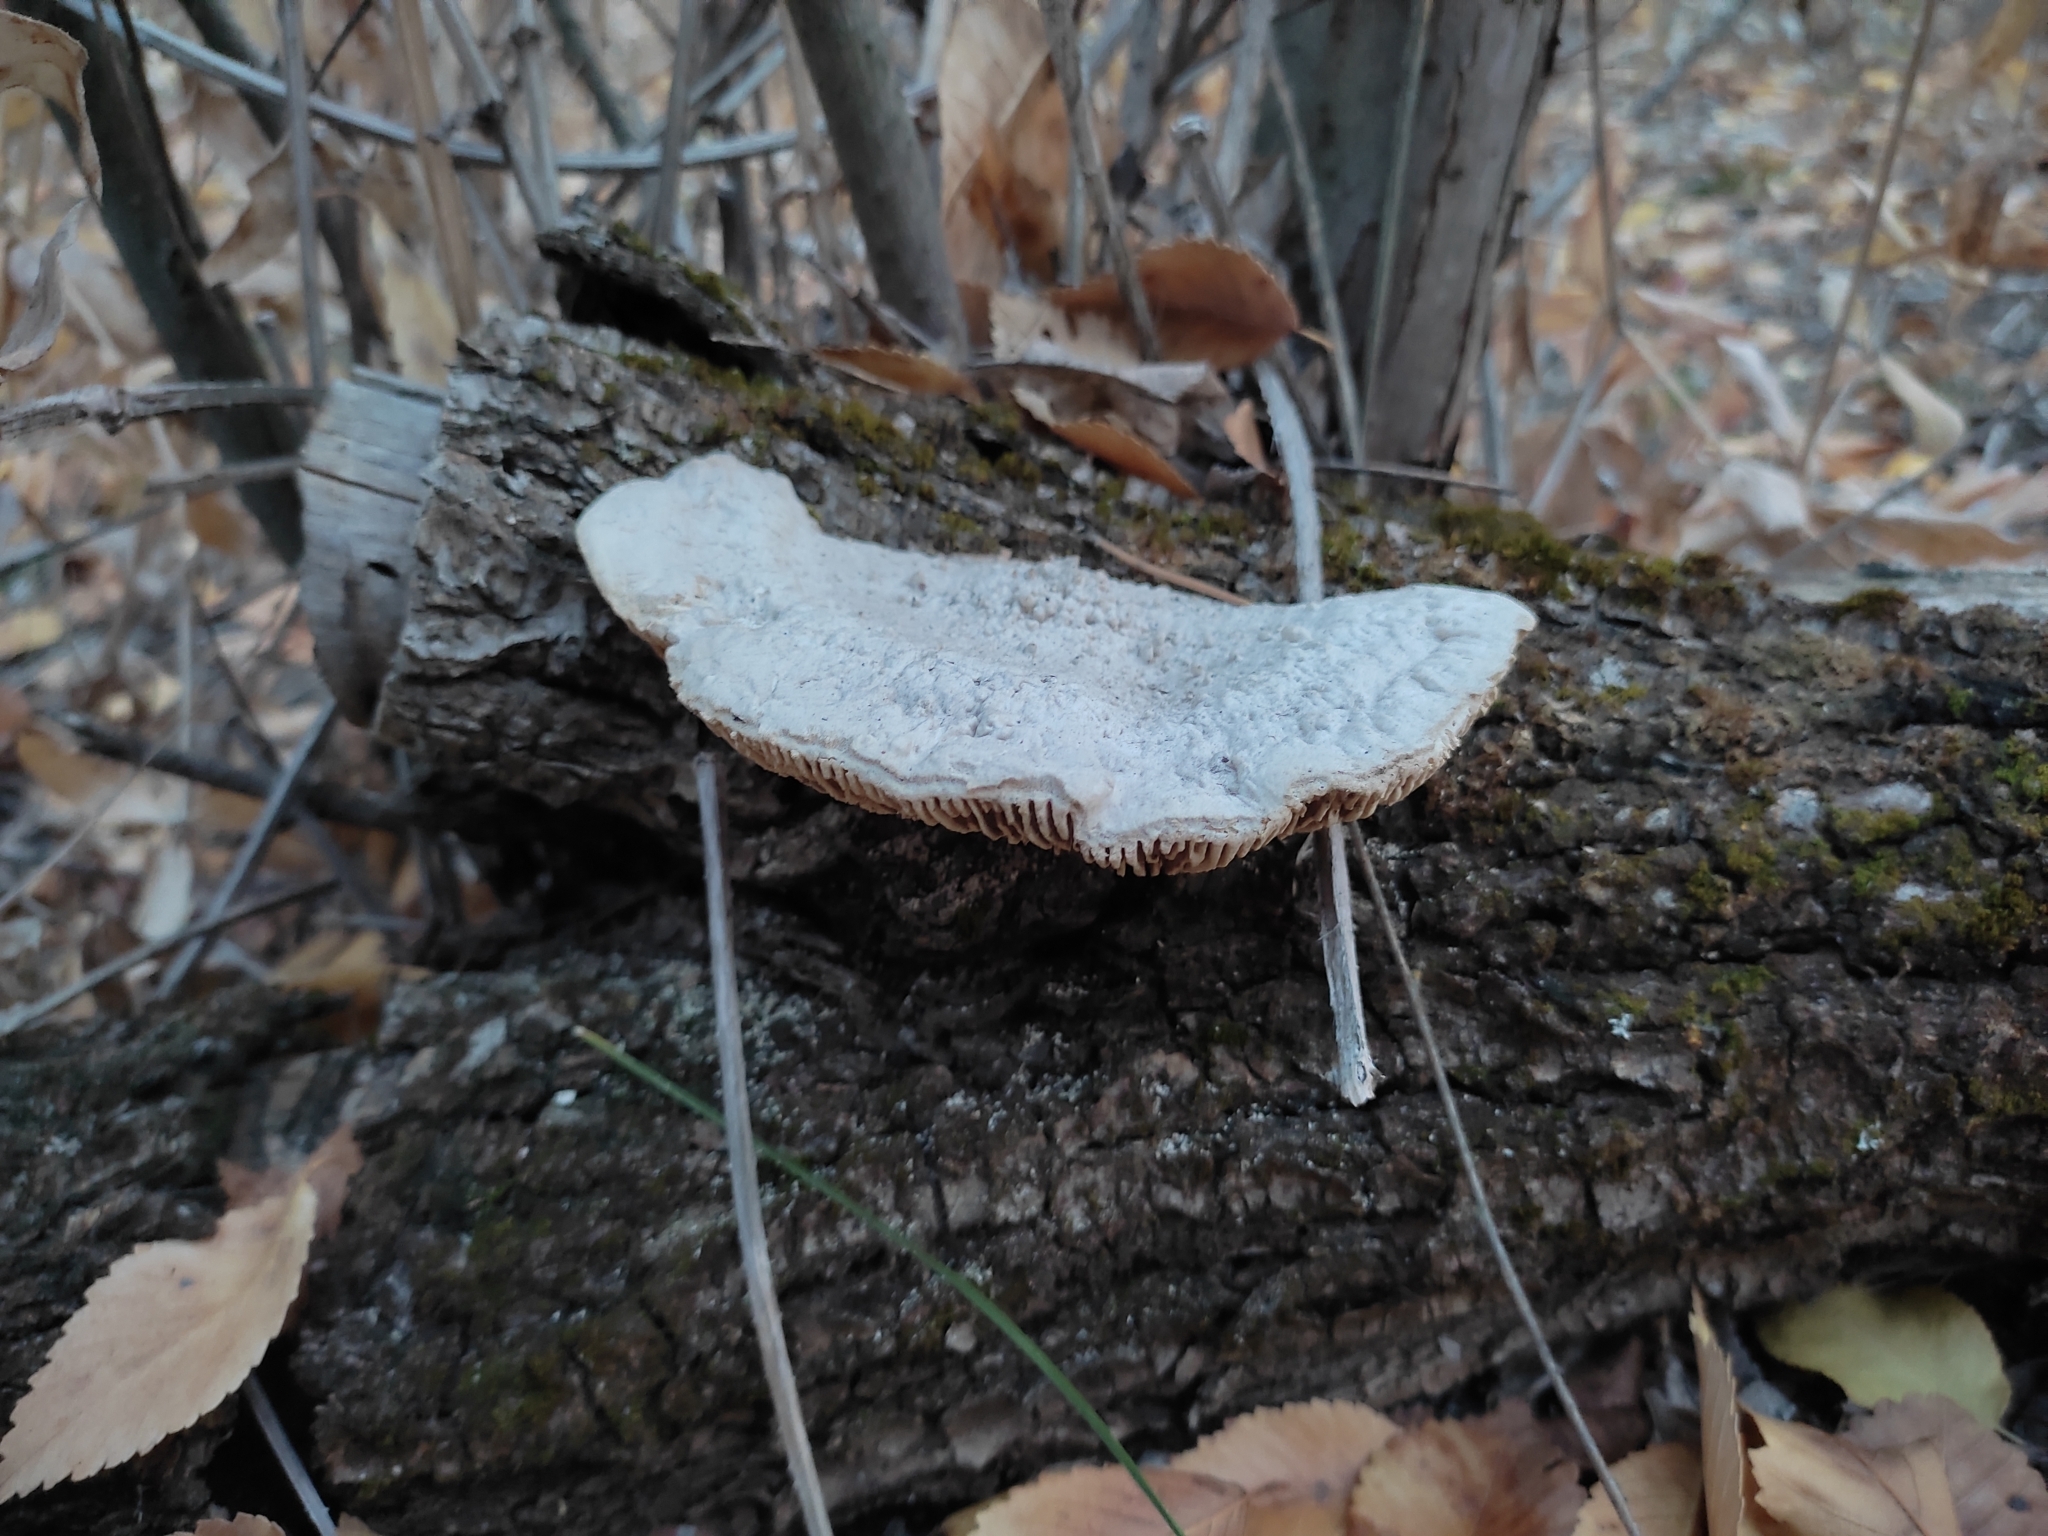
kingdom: Fungi
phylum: Basidiomycota
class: Agaricomycetes
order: Polyporales
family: Polyporaceae
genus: Cellulariella
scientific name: Cellulariella warnieri
